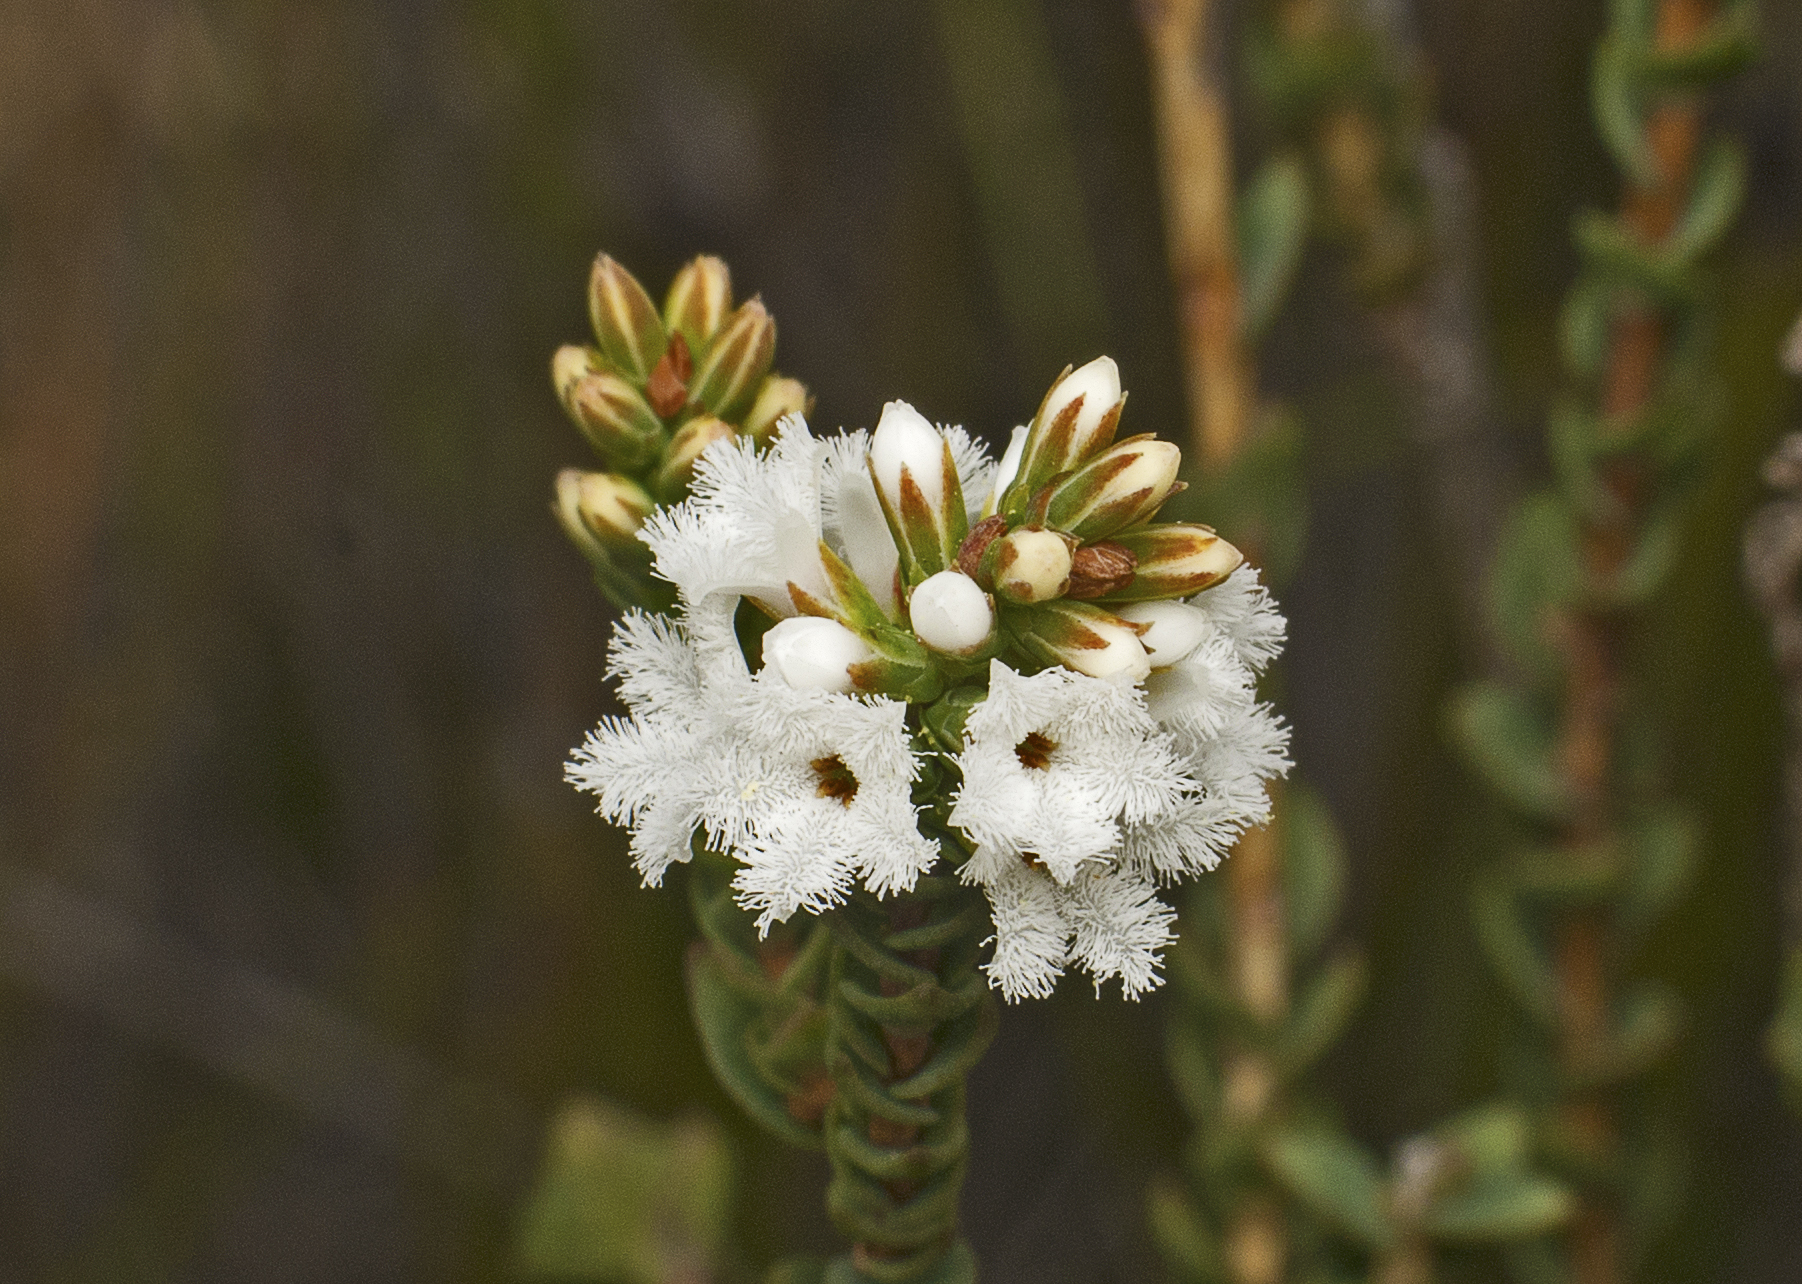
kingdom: Plantae
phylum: Tracheophyta
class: Magnoliopsida
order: Ericales
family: Ericaceae
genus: Leucopogon
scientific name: Leucopogon cucullatus
